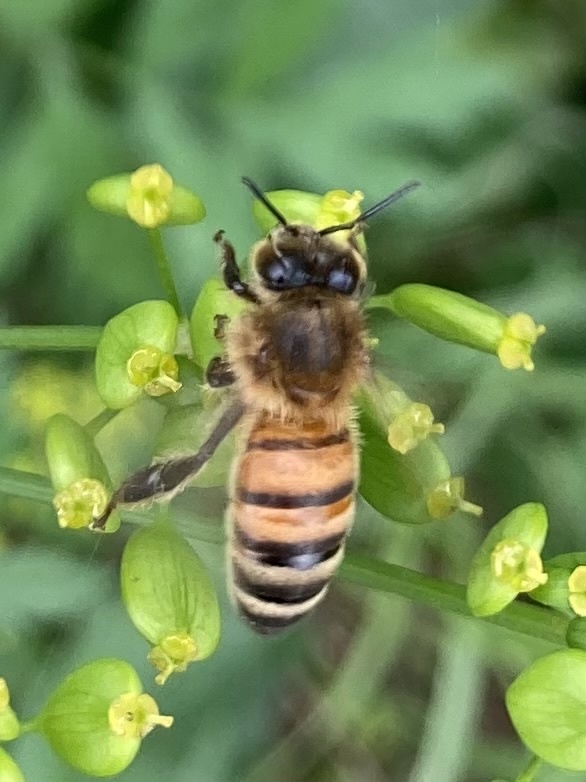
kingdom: Animalia
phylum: Arthropoda
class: Insecta
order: Hymenoptera
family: Apidae
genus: Apis
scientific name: Apis mellifera
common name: Honey bee
